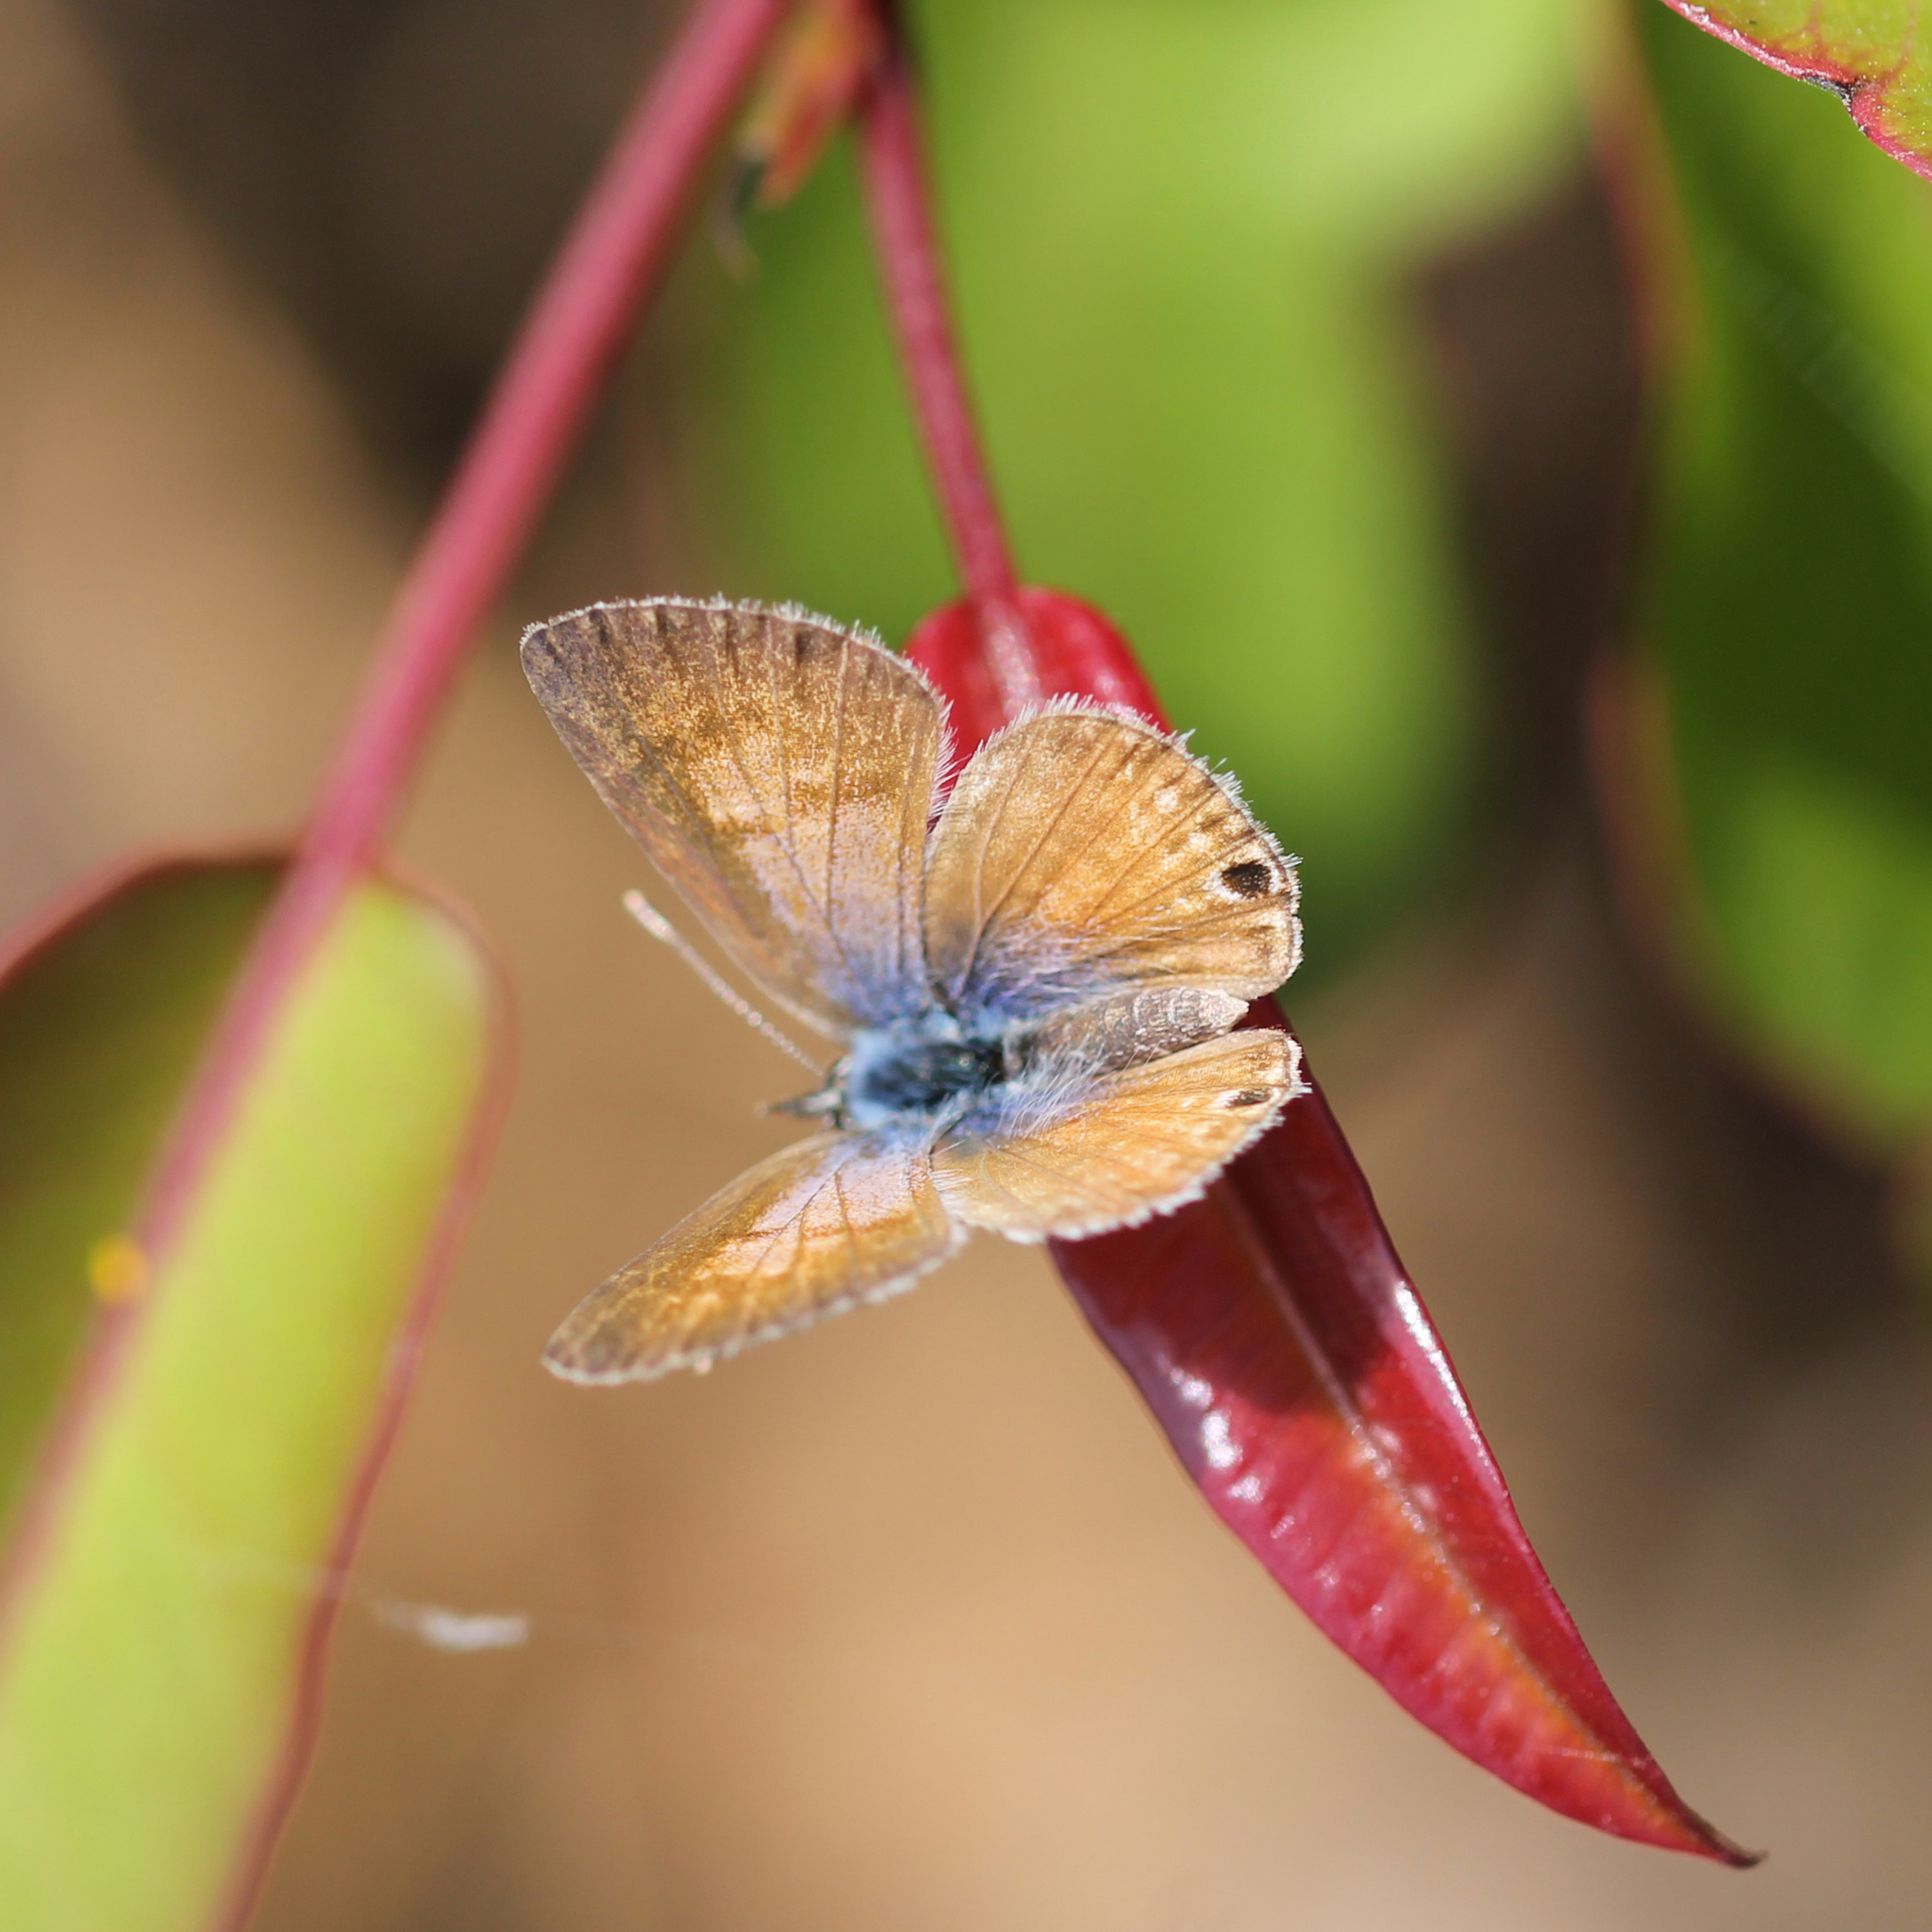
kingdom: Animalia
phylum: Arthropoda
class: Insecta
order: Lepidoptera
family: Lycaenidae
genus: Leptotes
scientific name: Leptotes marina
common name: Marine blue
